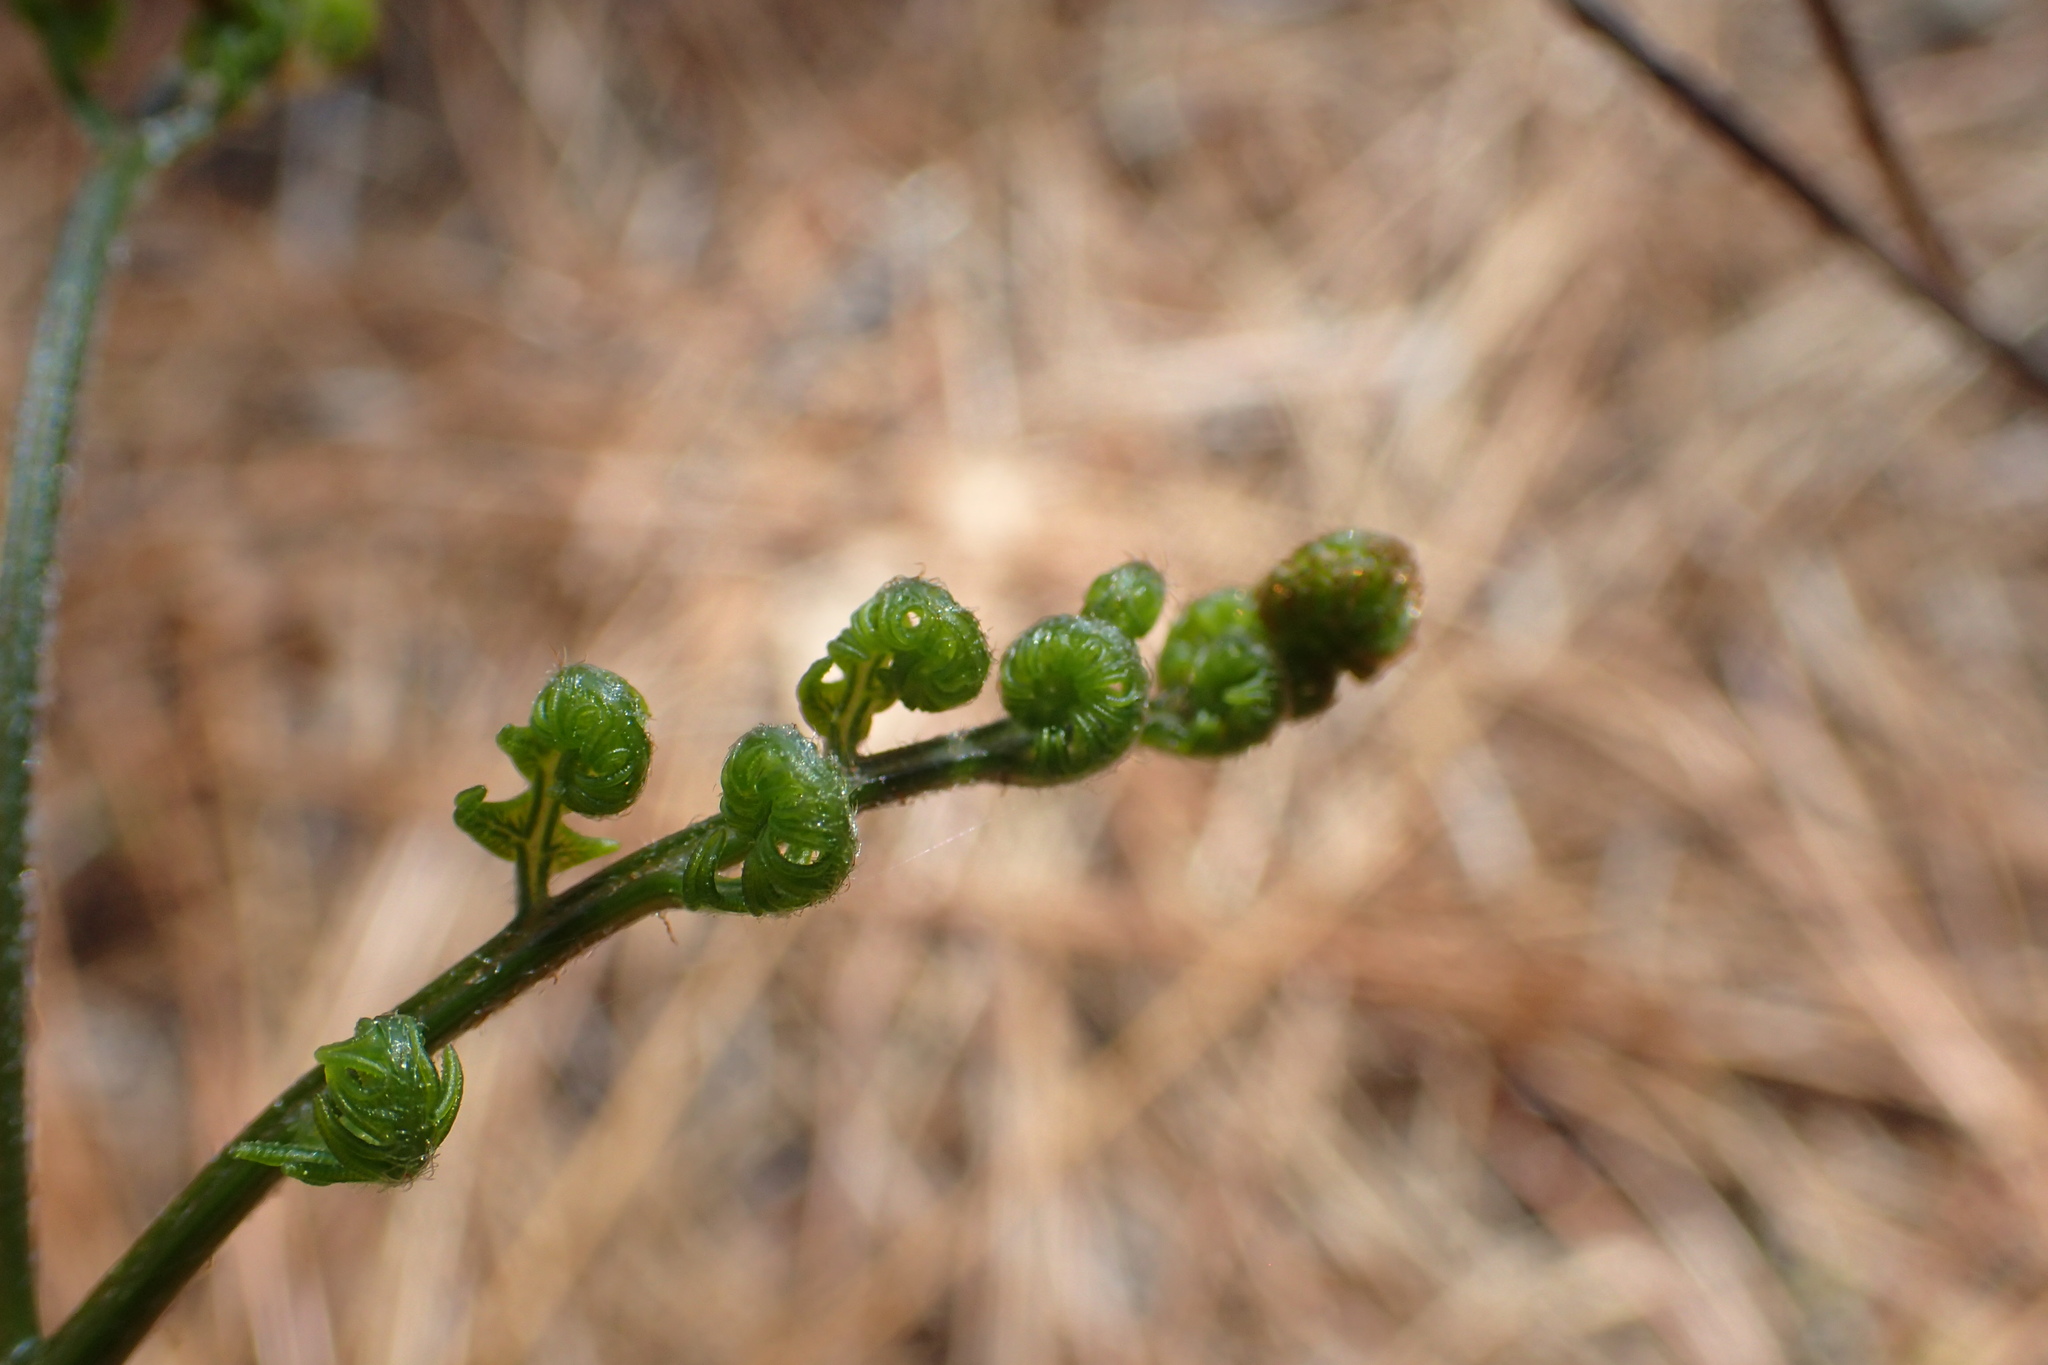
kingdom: Plantae
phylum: Tracheophyta
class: Polypodiopsida
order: Polypodiales
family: Dennstaedtiaceae
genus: Pteridium
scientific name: Pteridium aquilinum
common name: Bracken
